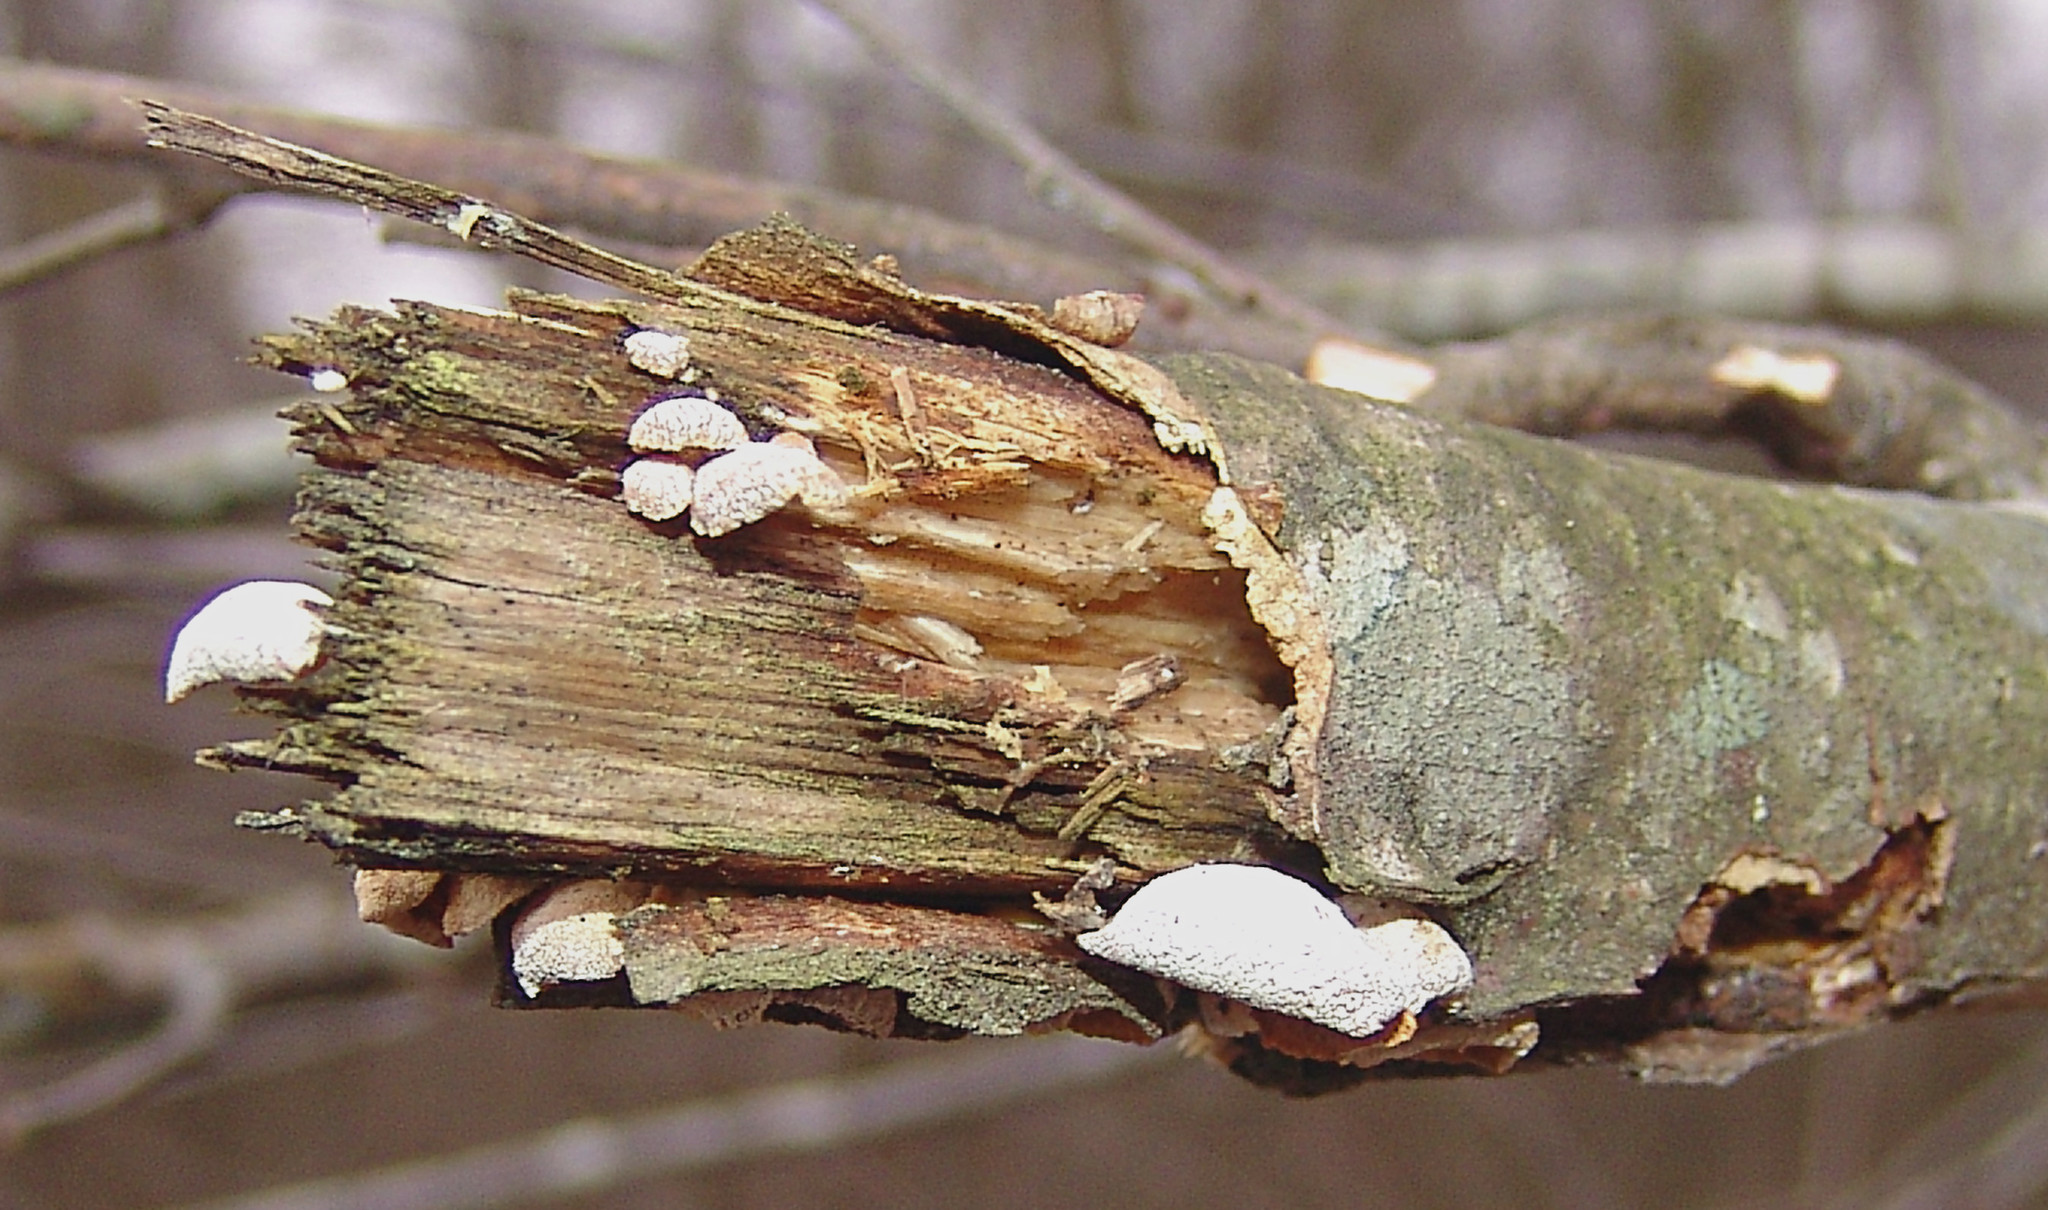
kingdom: Fungi
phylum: Basidiomycota
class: Agaricomycetes
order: Agaricales
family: Mycenaceae
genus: Panellus
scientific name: Panellus stipticus
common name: Bitter oysterling
